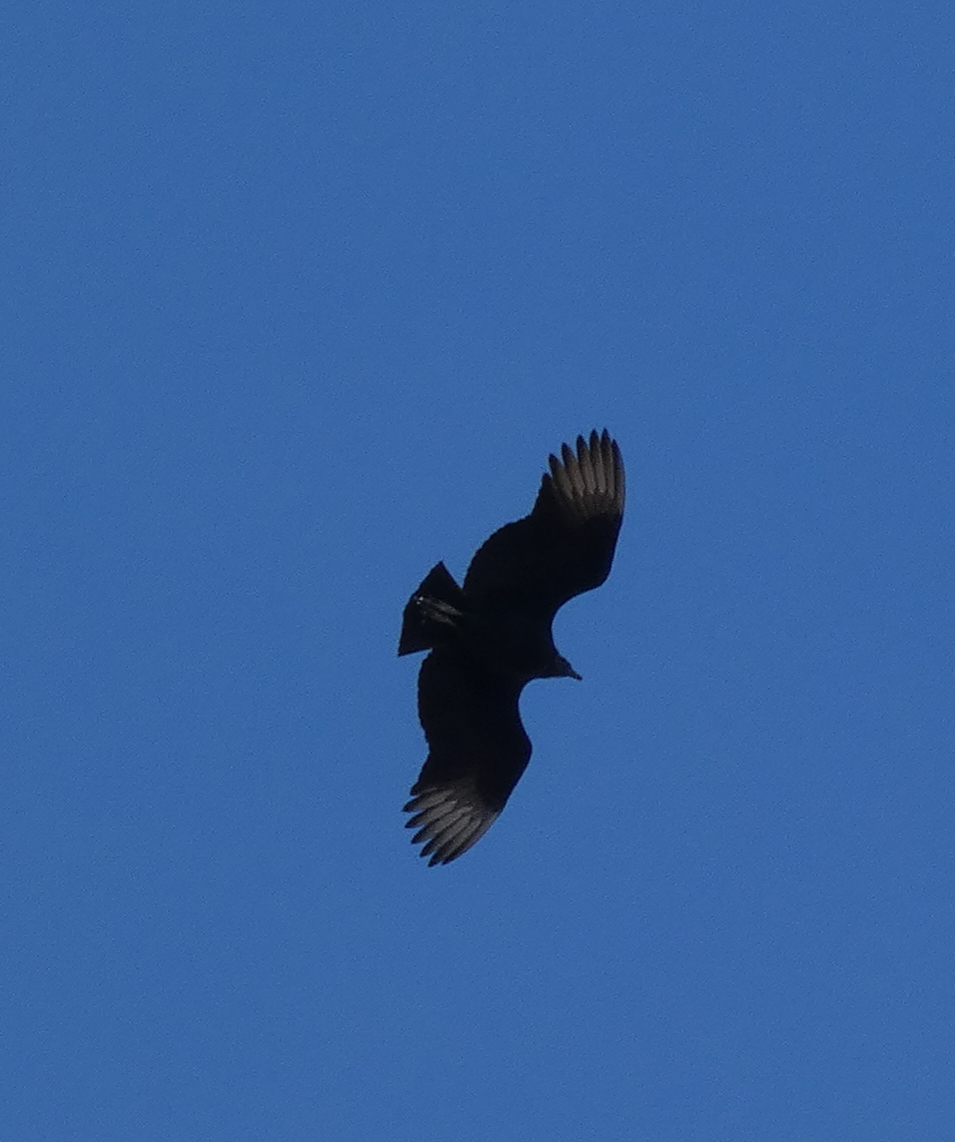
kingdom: Animalia
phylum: Chordata
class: Aves
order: Accipitriformes
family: Cathartidae
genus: Coragyps
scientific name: Coragyps atratus
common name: Black vulture
